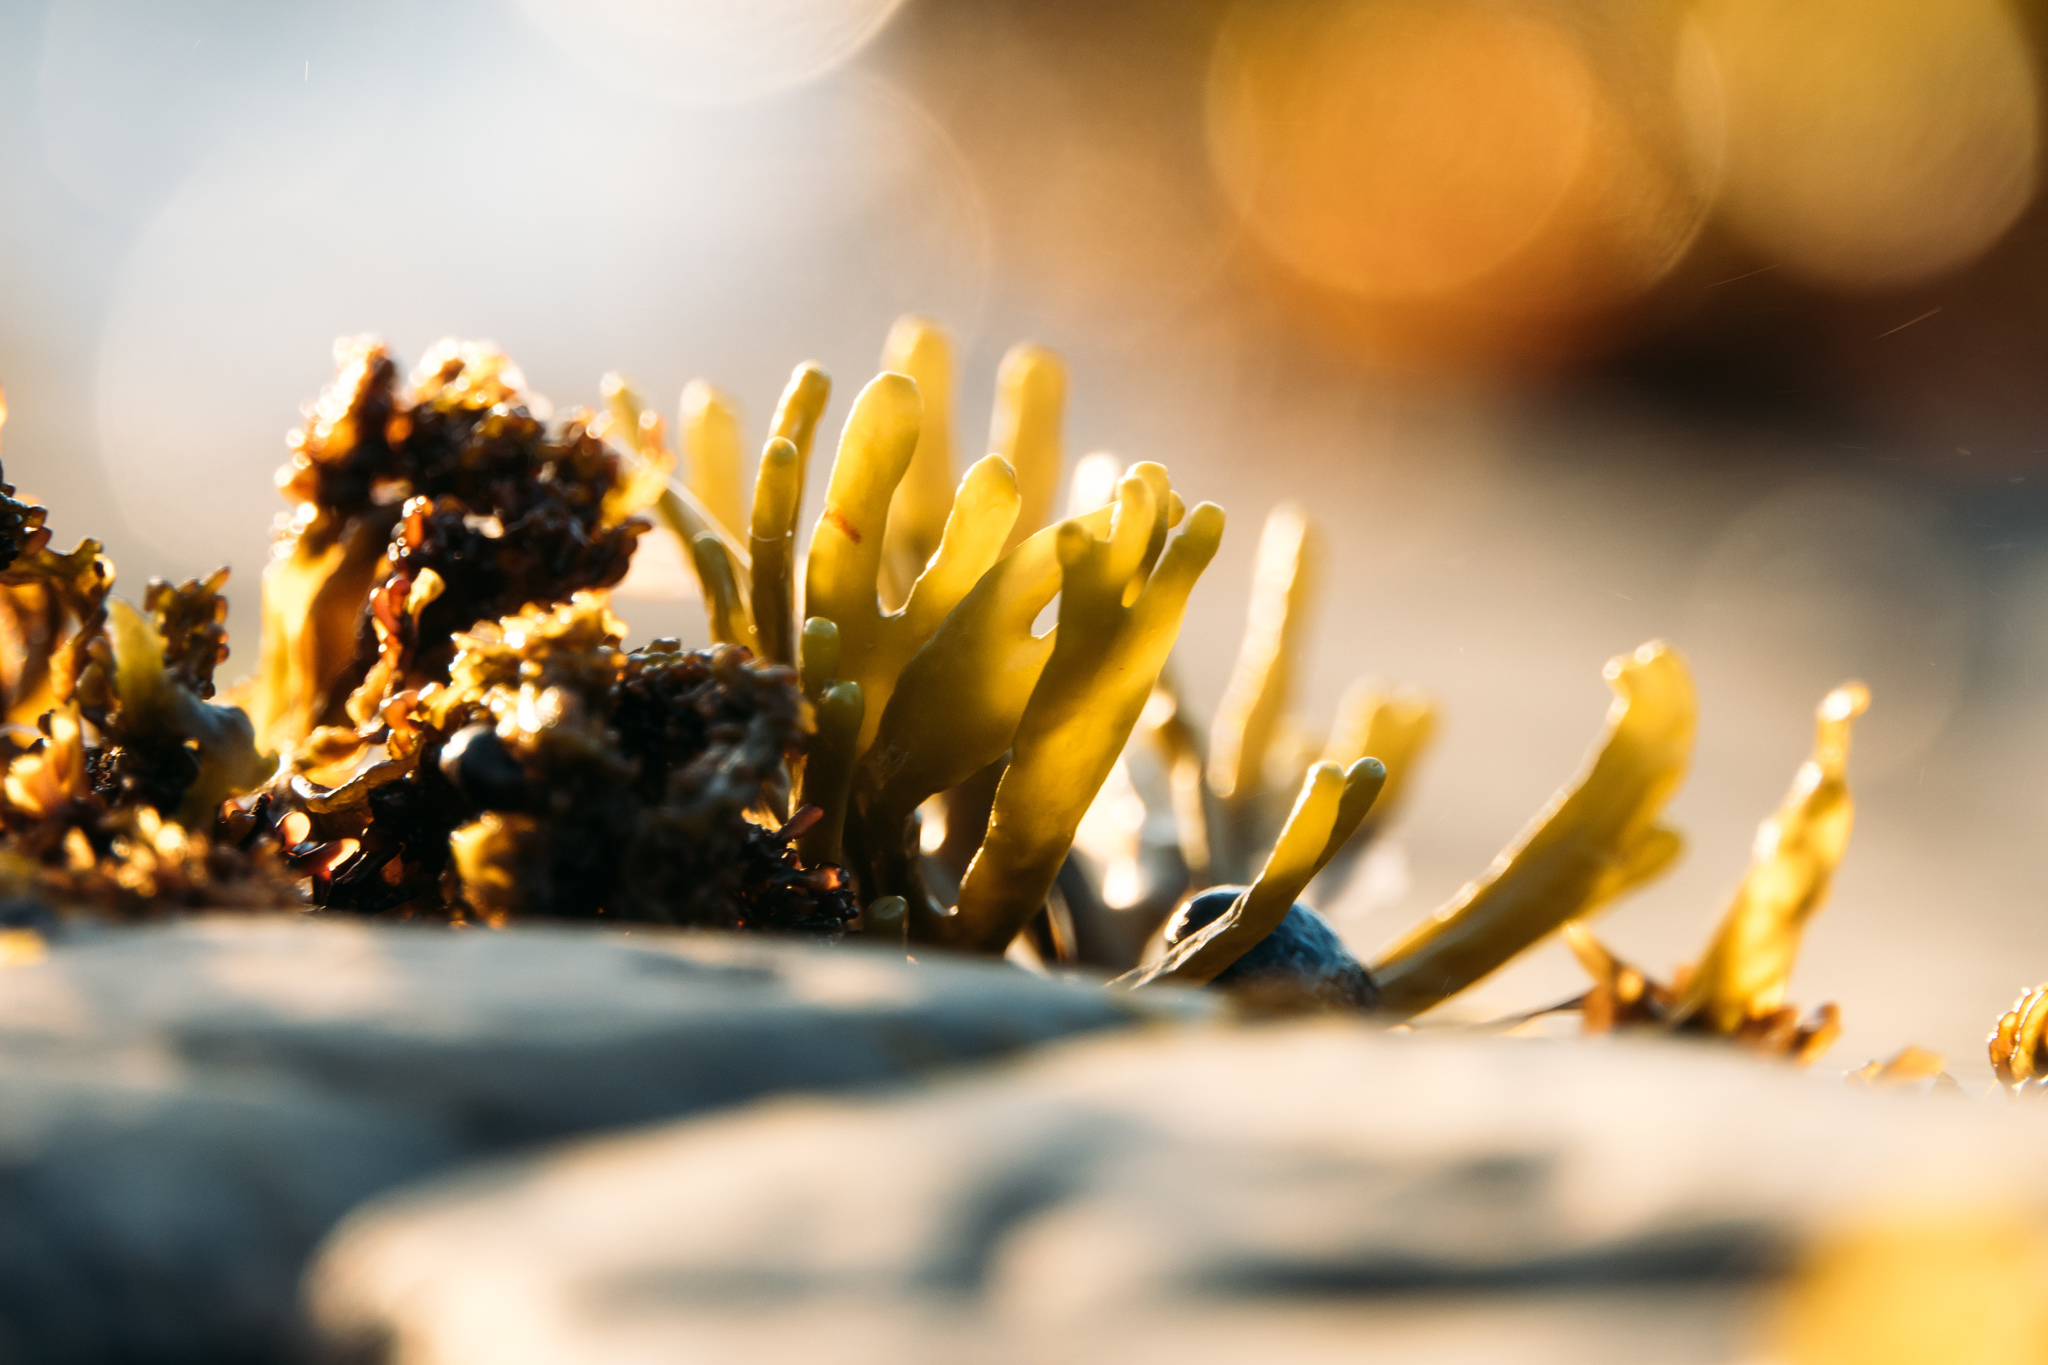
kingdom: Chromista
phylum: Ochrophyta
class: Phaeophyceae
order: Fucales
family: Fucaceae
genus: Pelvetiopsis
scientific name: Pelvetiopsis limitata
